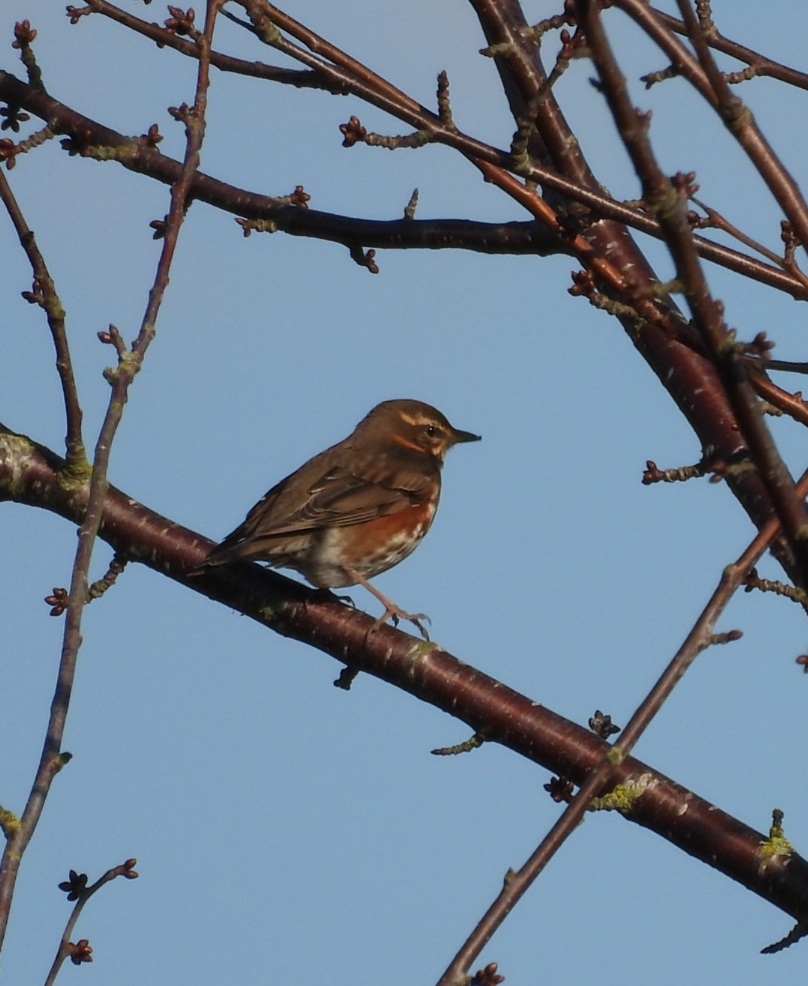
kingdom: Animalia
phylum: Chordata
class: Aves
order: Passeriformes
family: Turdidae
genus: Turdus
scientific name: Turdus iliacus
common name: Redwing
